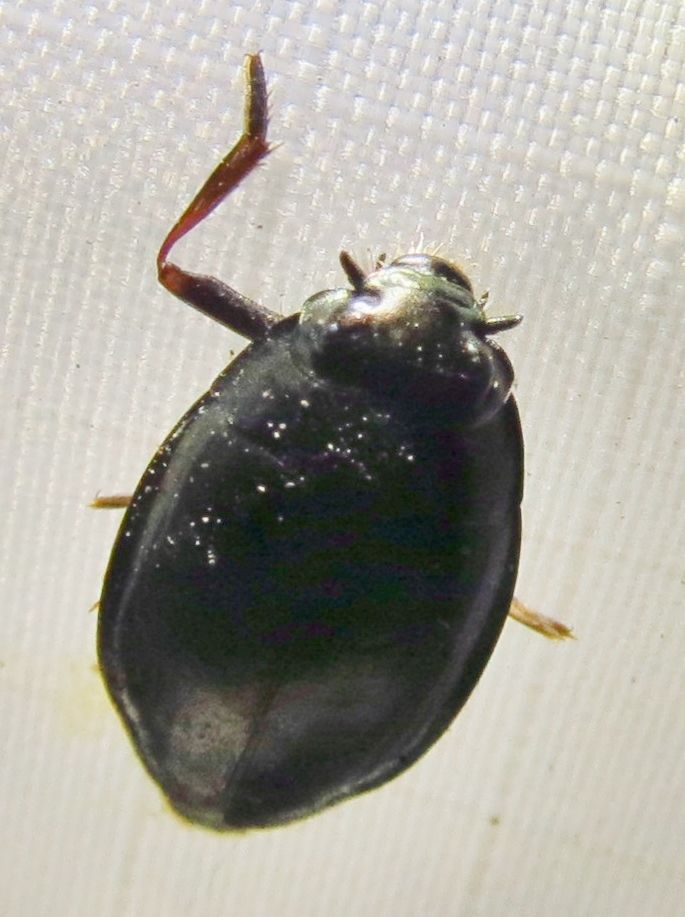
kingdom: Animalia
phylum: Arthropoda
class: Insecta
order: Coleoptera
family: Gyrinidae
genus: Dineutus
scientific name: Dineutus
